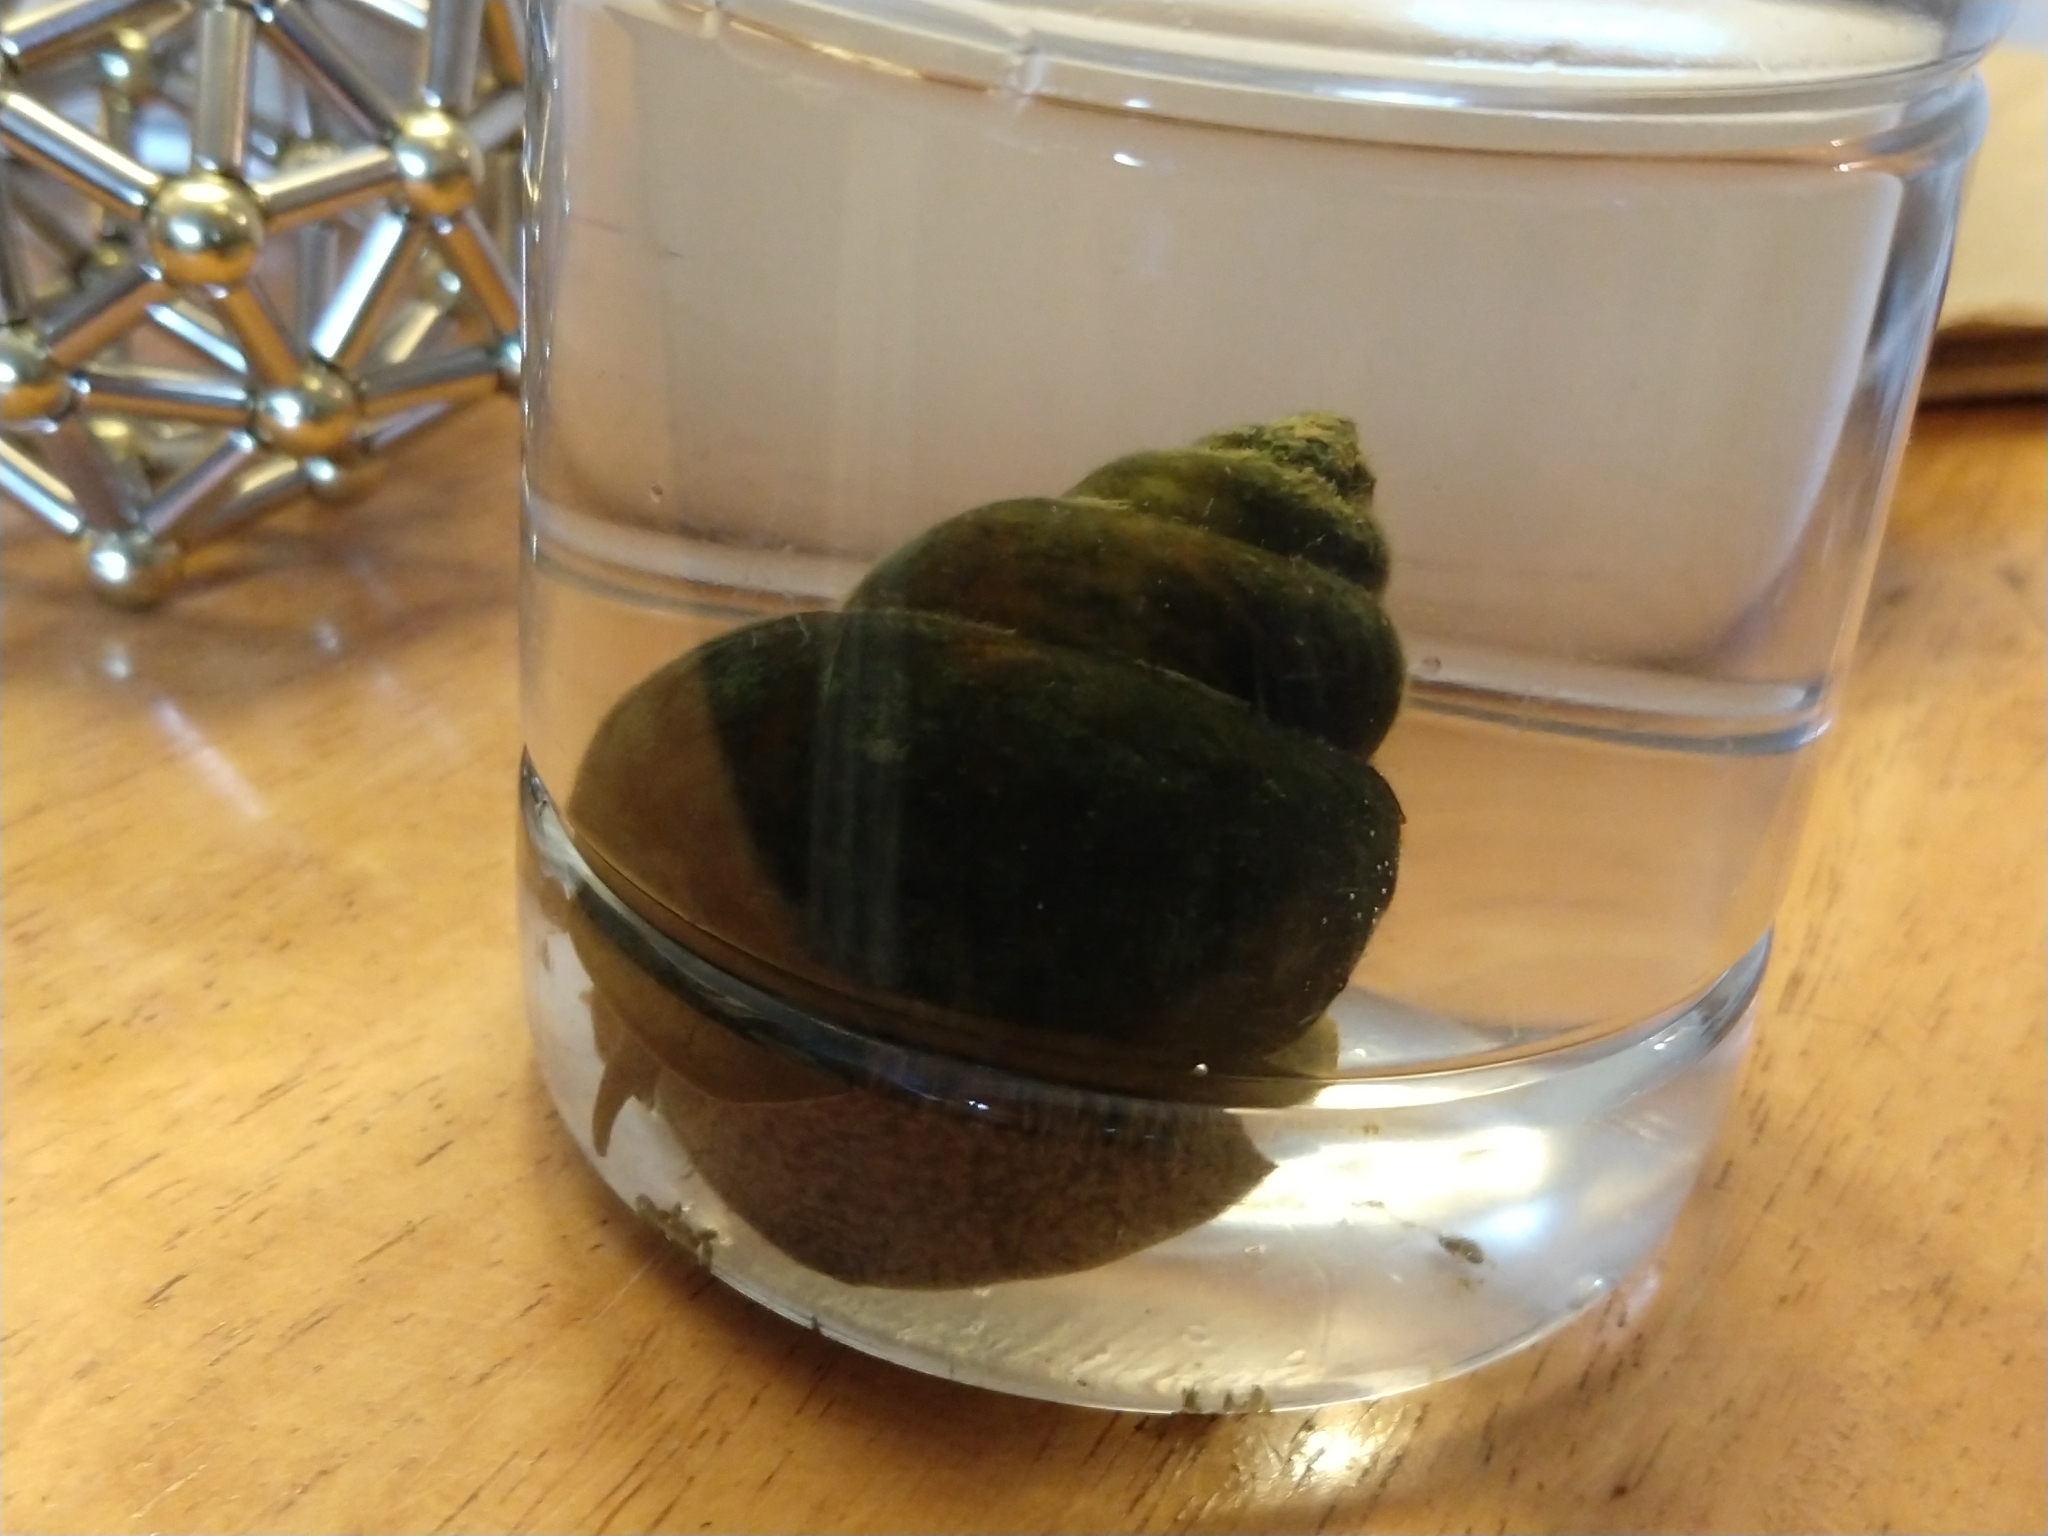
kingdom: Animalia
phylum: Mollusca
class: Gastropoda
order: Architaenioglossa
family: Viviparidae
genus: Cipangopaludina
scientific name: Cipangopaludina chinensis
